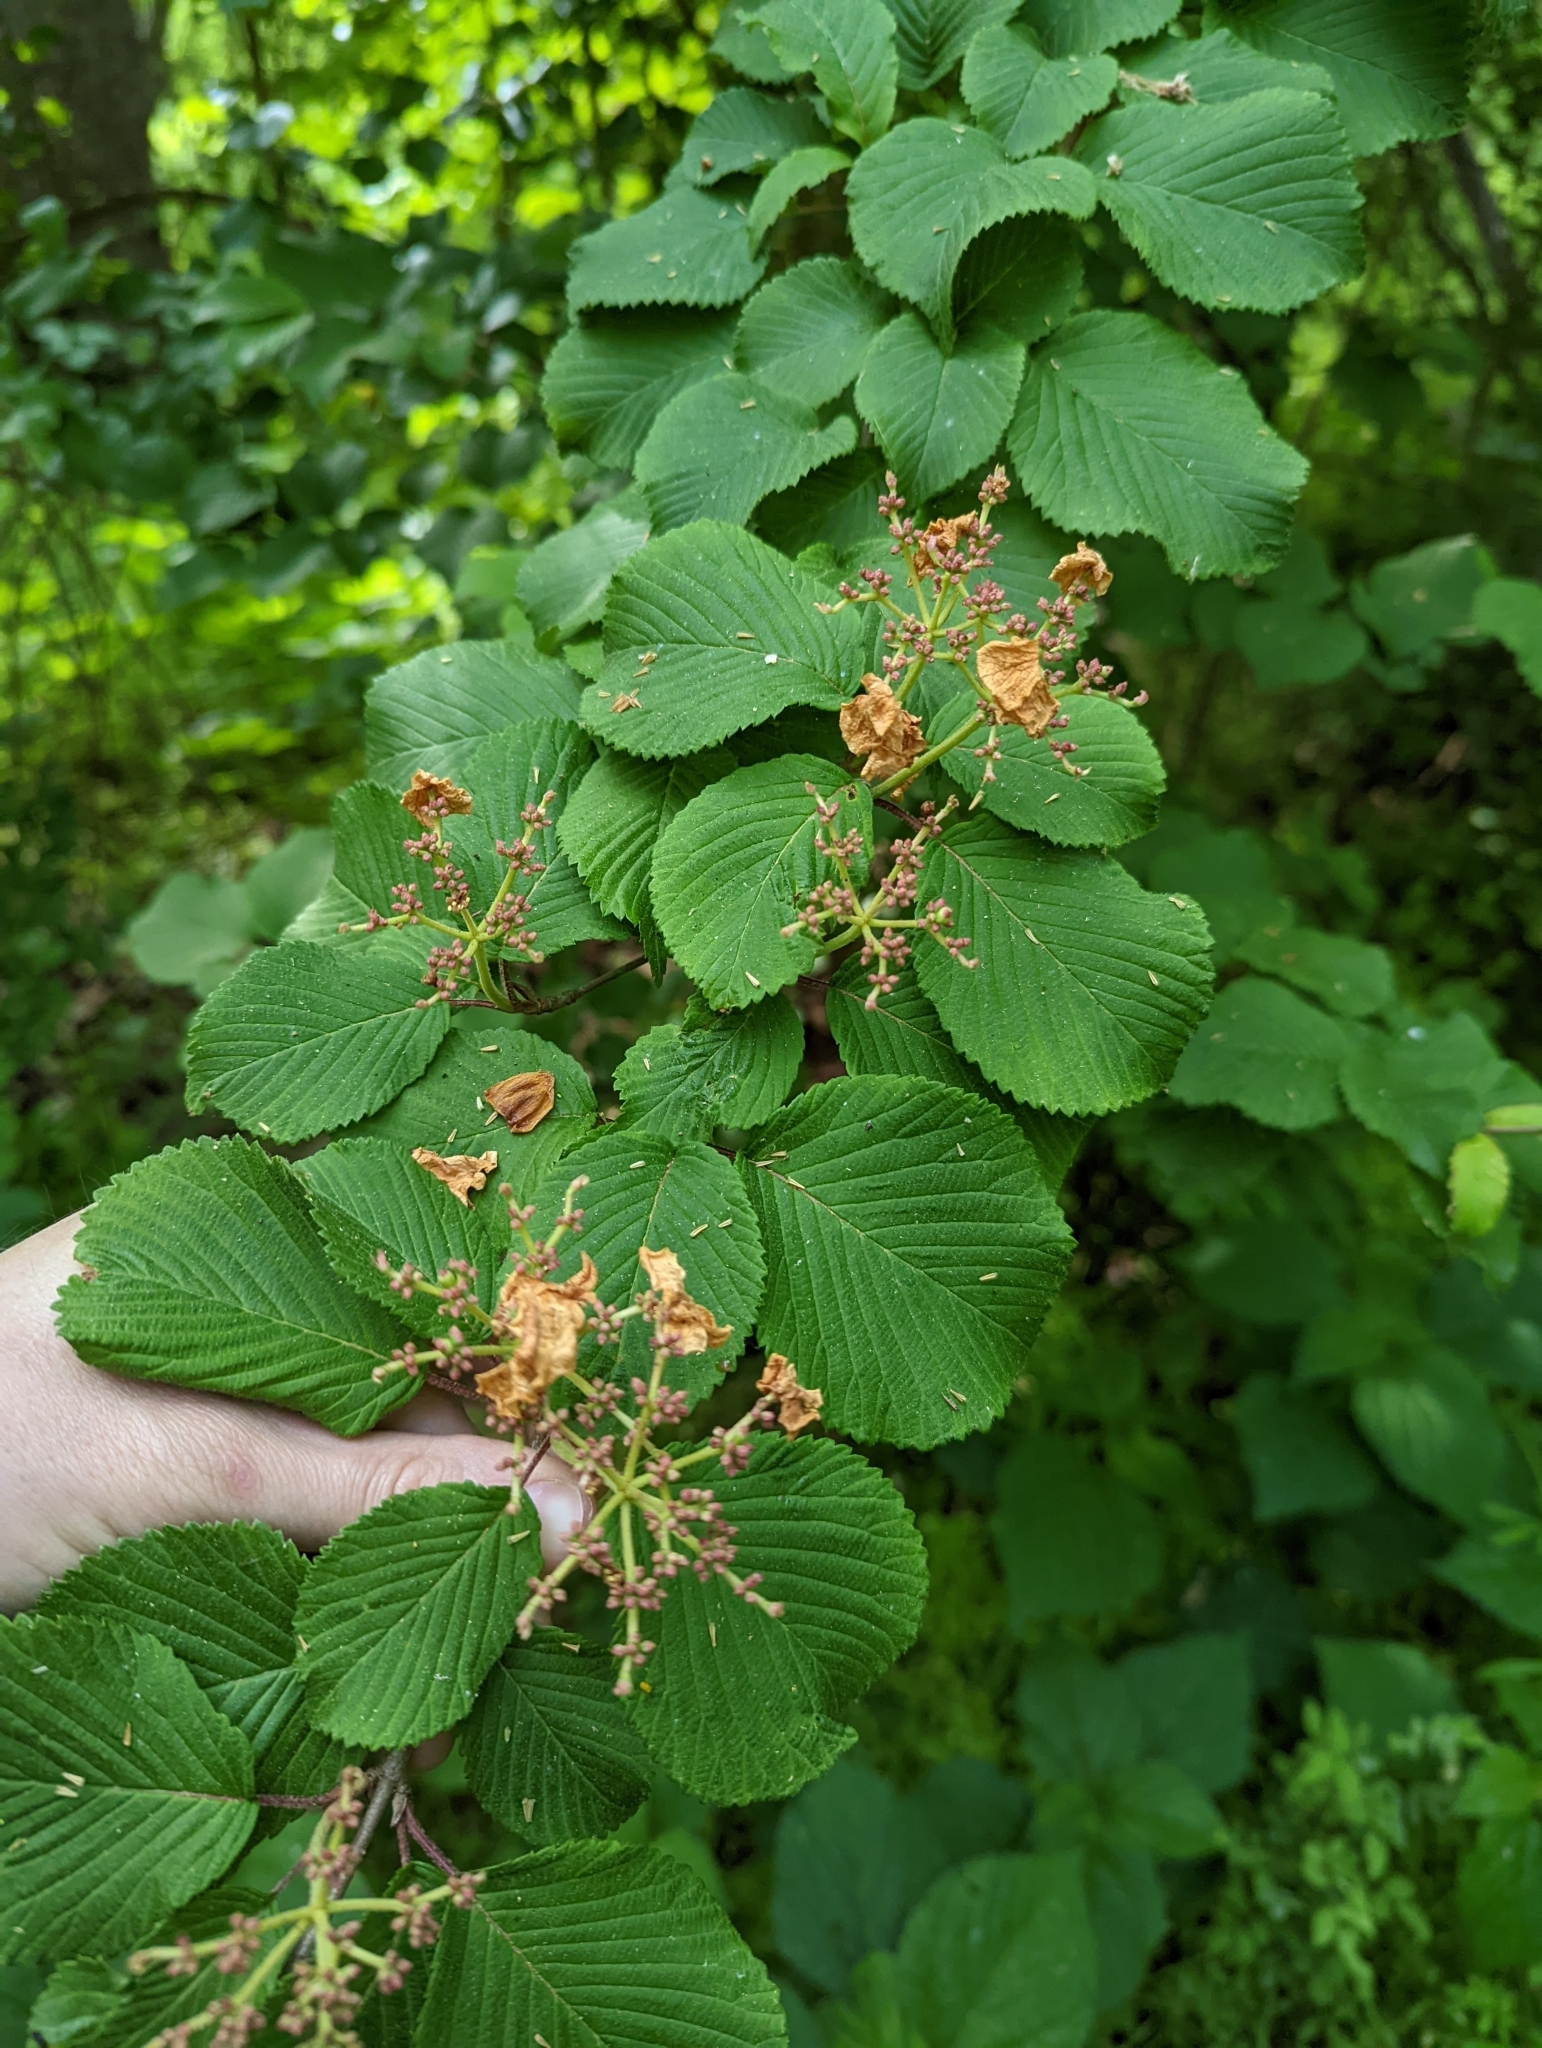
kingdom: Plantae
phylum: Tracheophyta
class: Magnoliopsida
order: Dipsacales
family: Viburnaceae
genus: Viburnum
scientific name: Viburnum plicatum
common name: Japanese snowball
